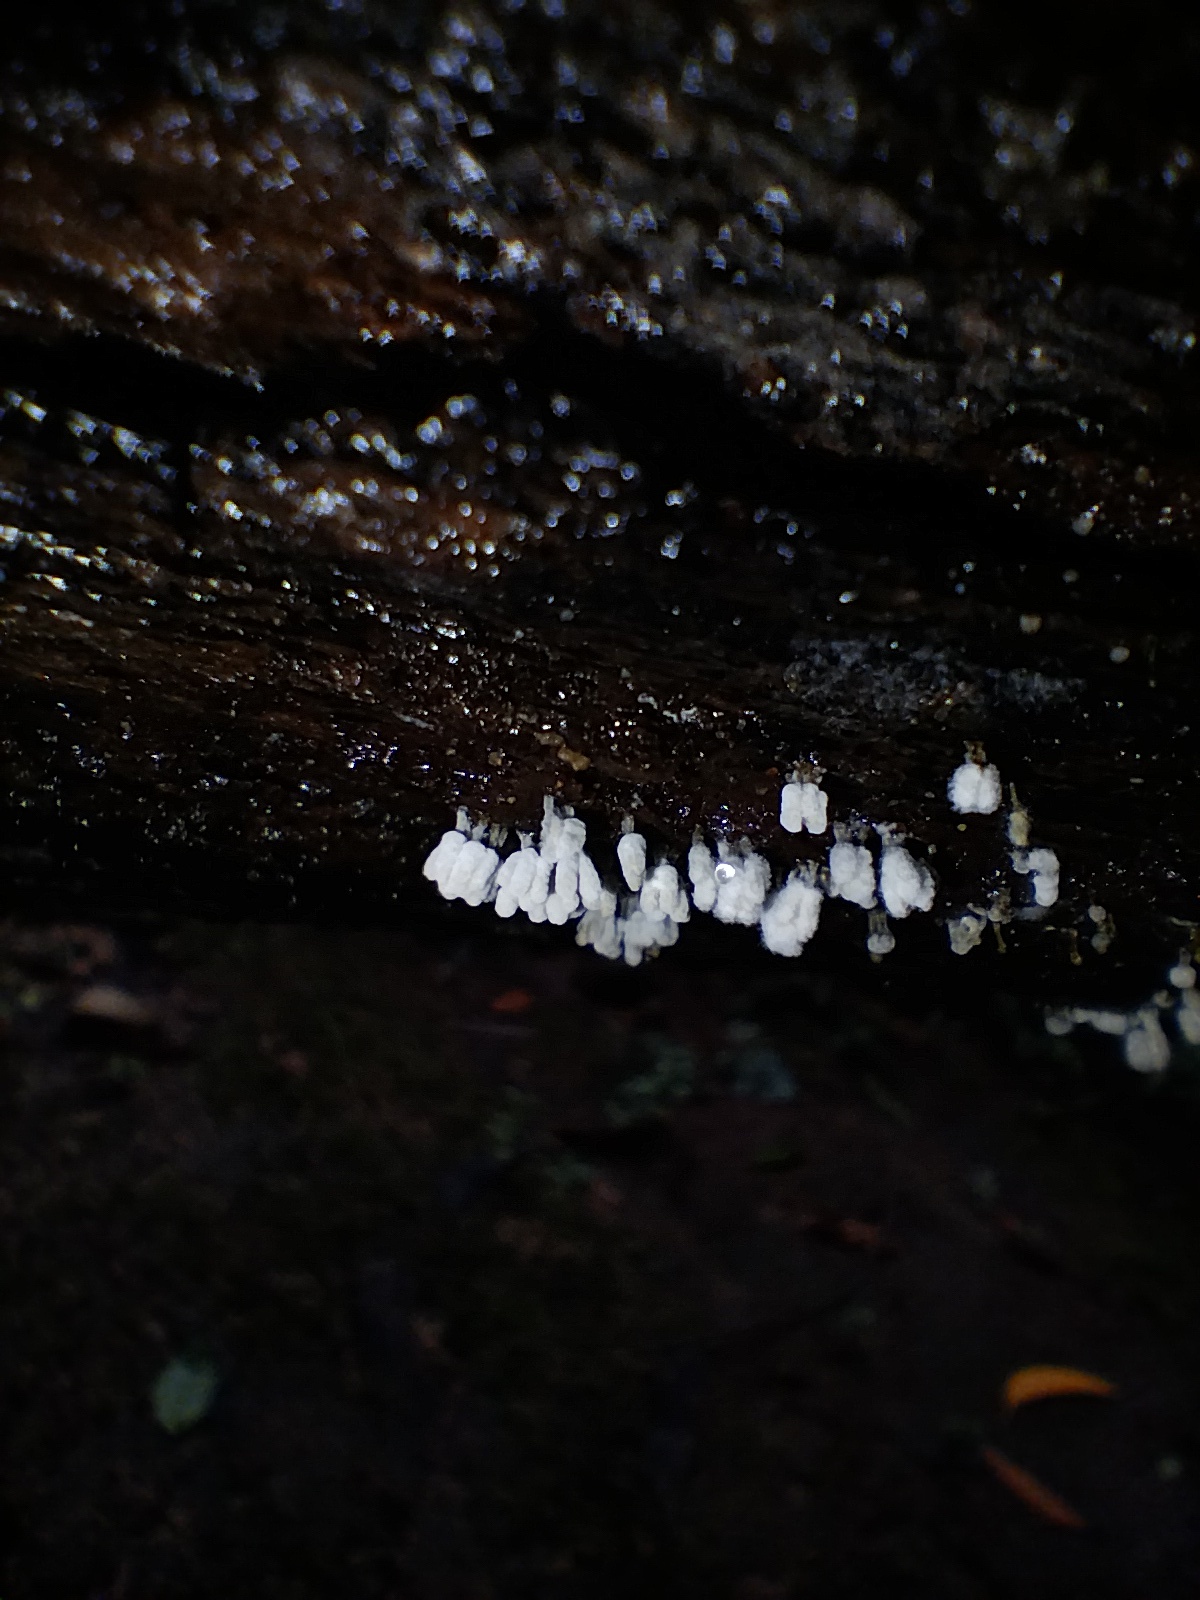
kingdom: Protozoa
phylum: Mycetozoa
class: Myxomycetes
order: Trichiales
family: Arcyriaceae
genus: Arcyria
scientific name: Arcyria cinerea
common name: White carnival candy slime mold
